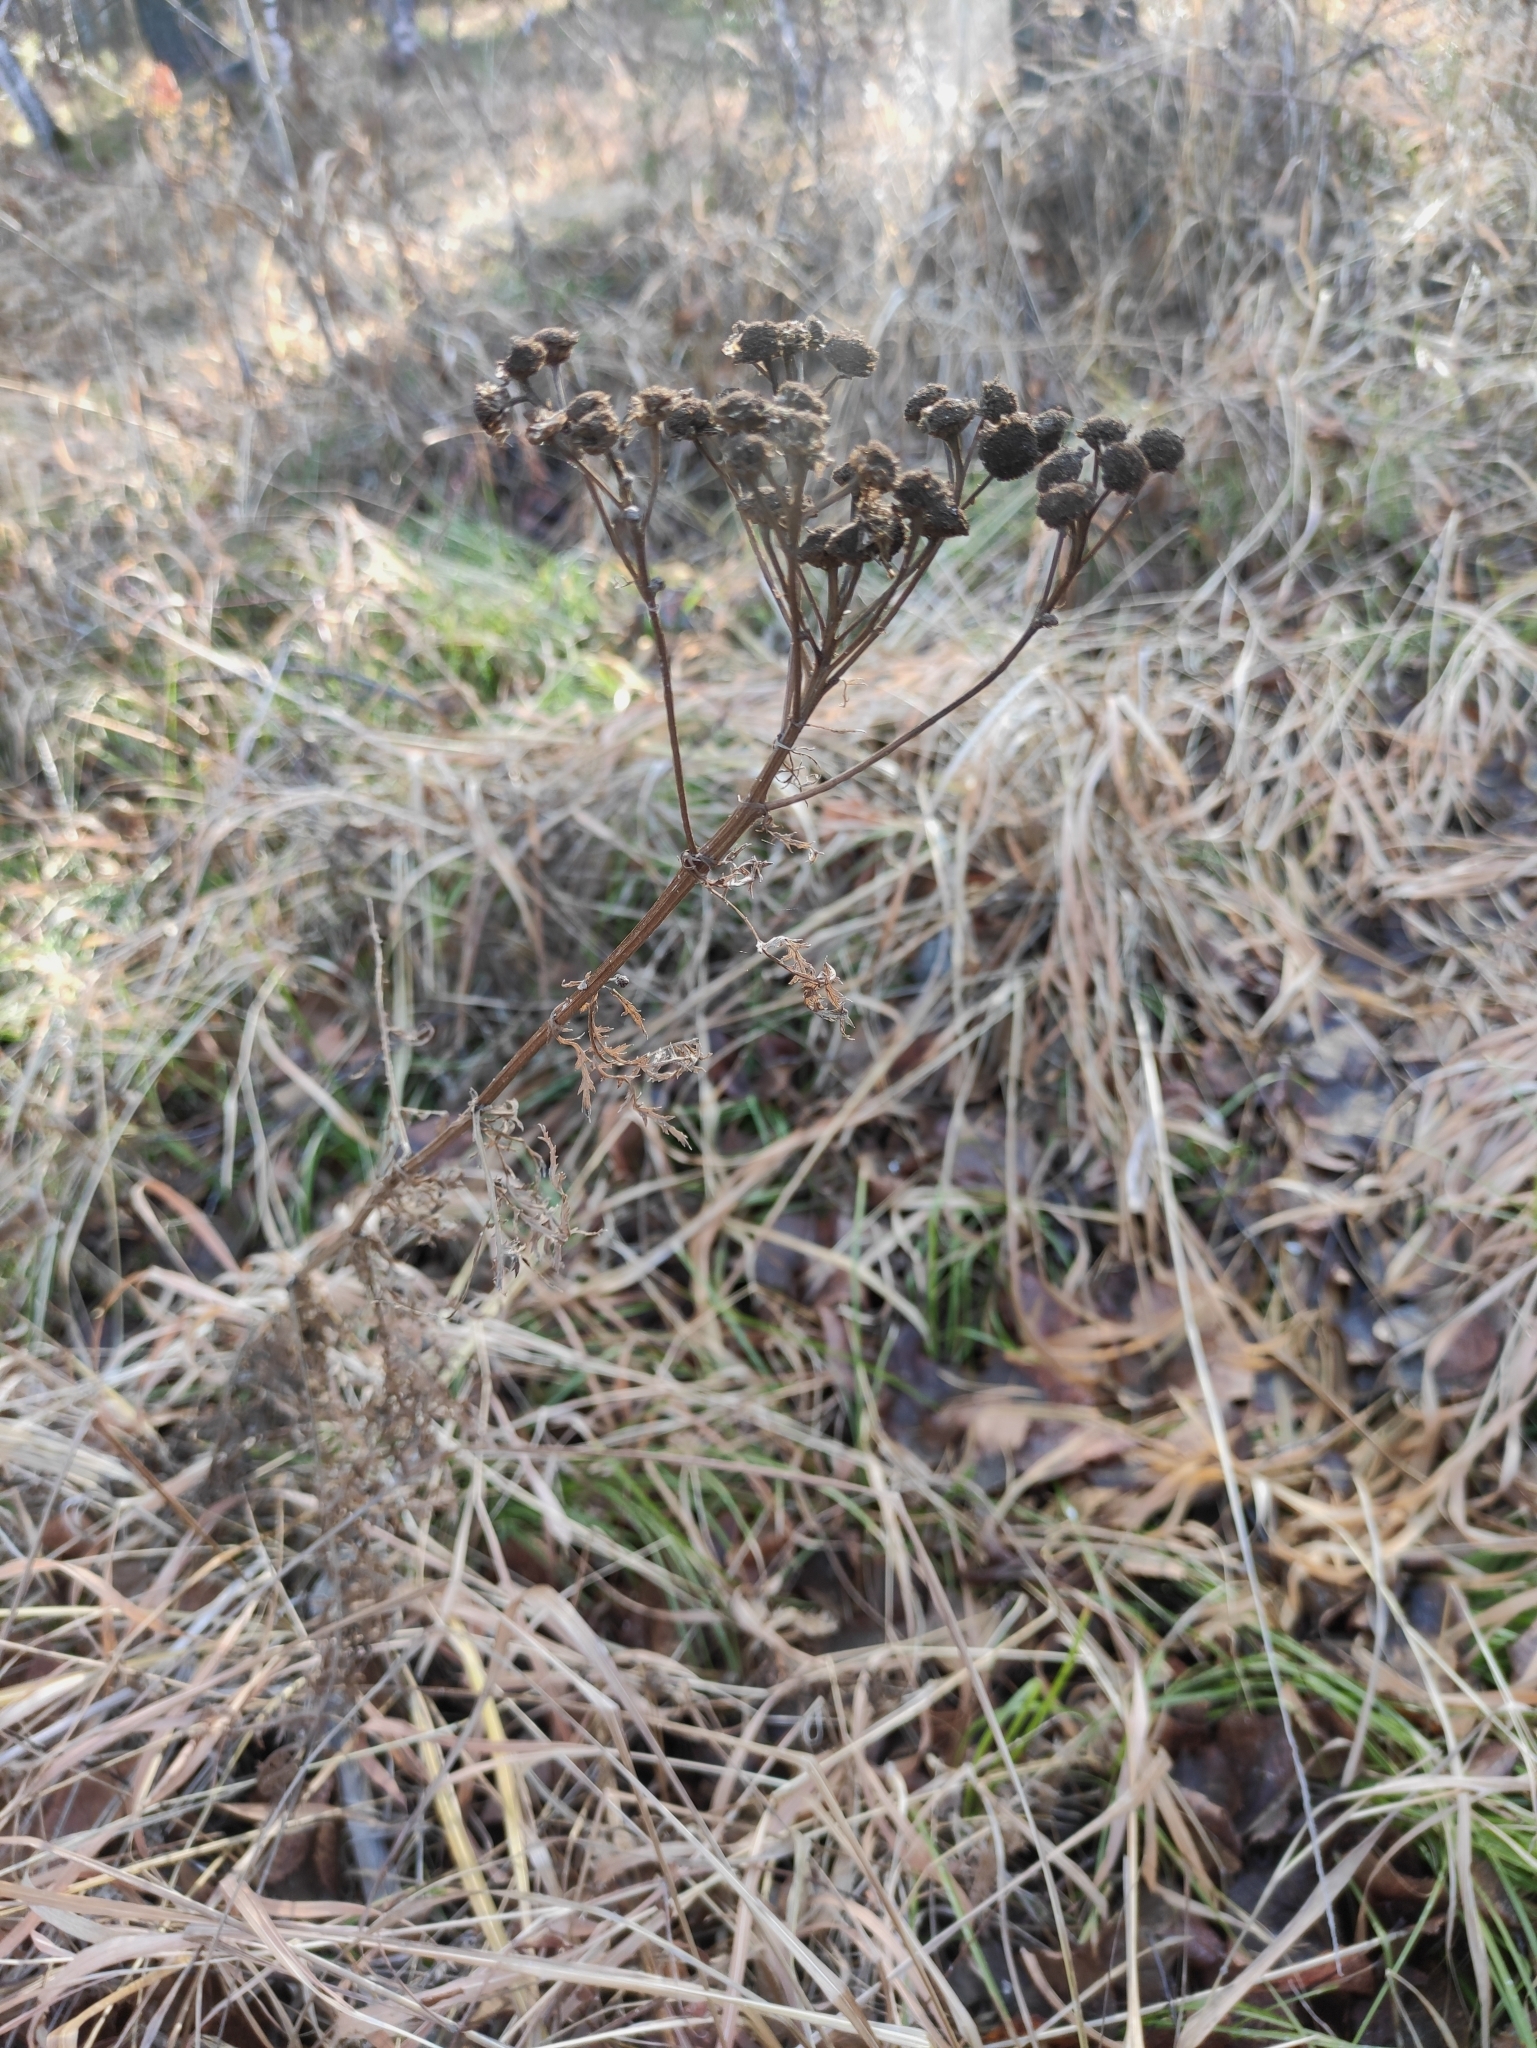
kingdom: Plantae
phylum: Tracheophyta
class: Magnoliopsida
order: Asterales
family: Asteraceae
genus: Tanacetum
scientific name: Tanacetum vulgare
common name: Common tansy
